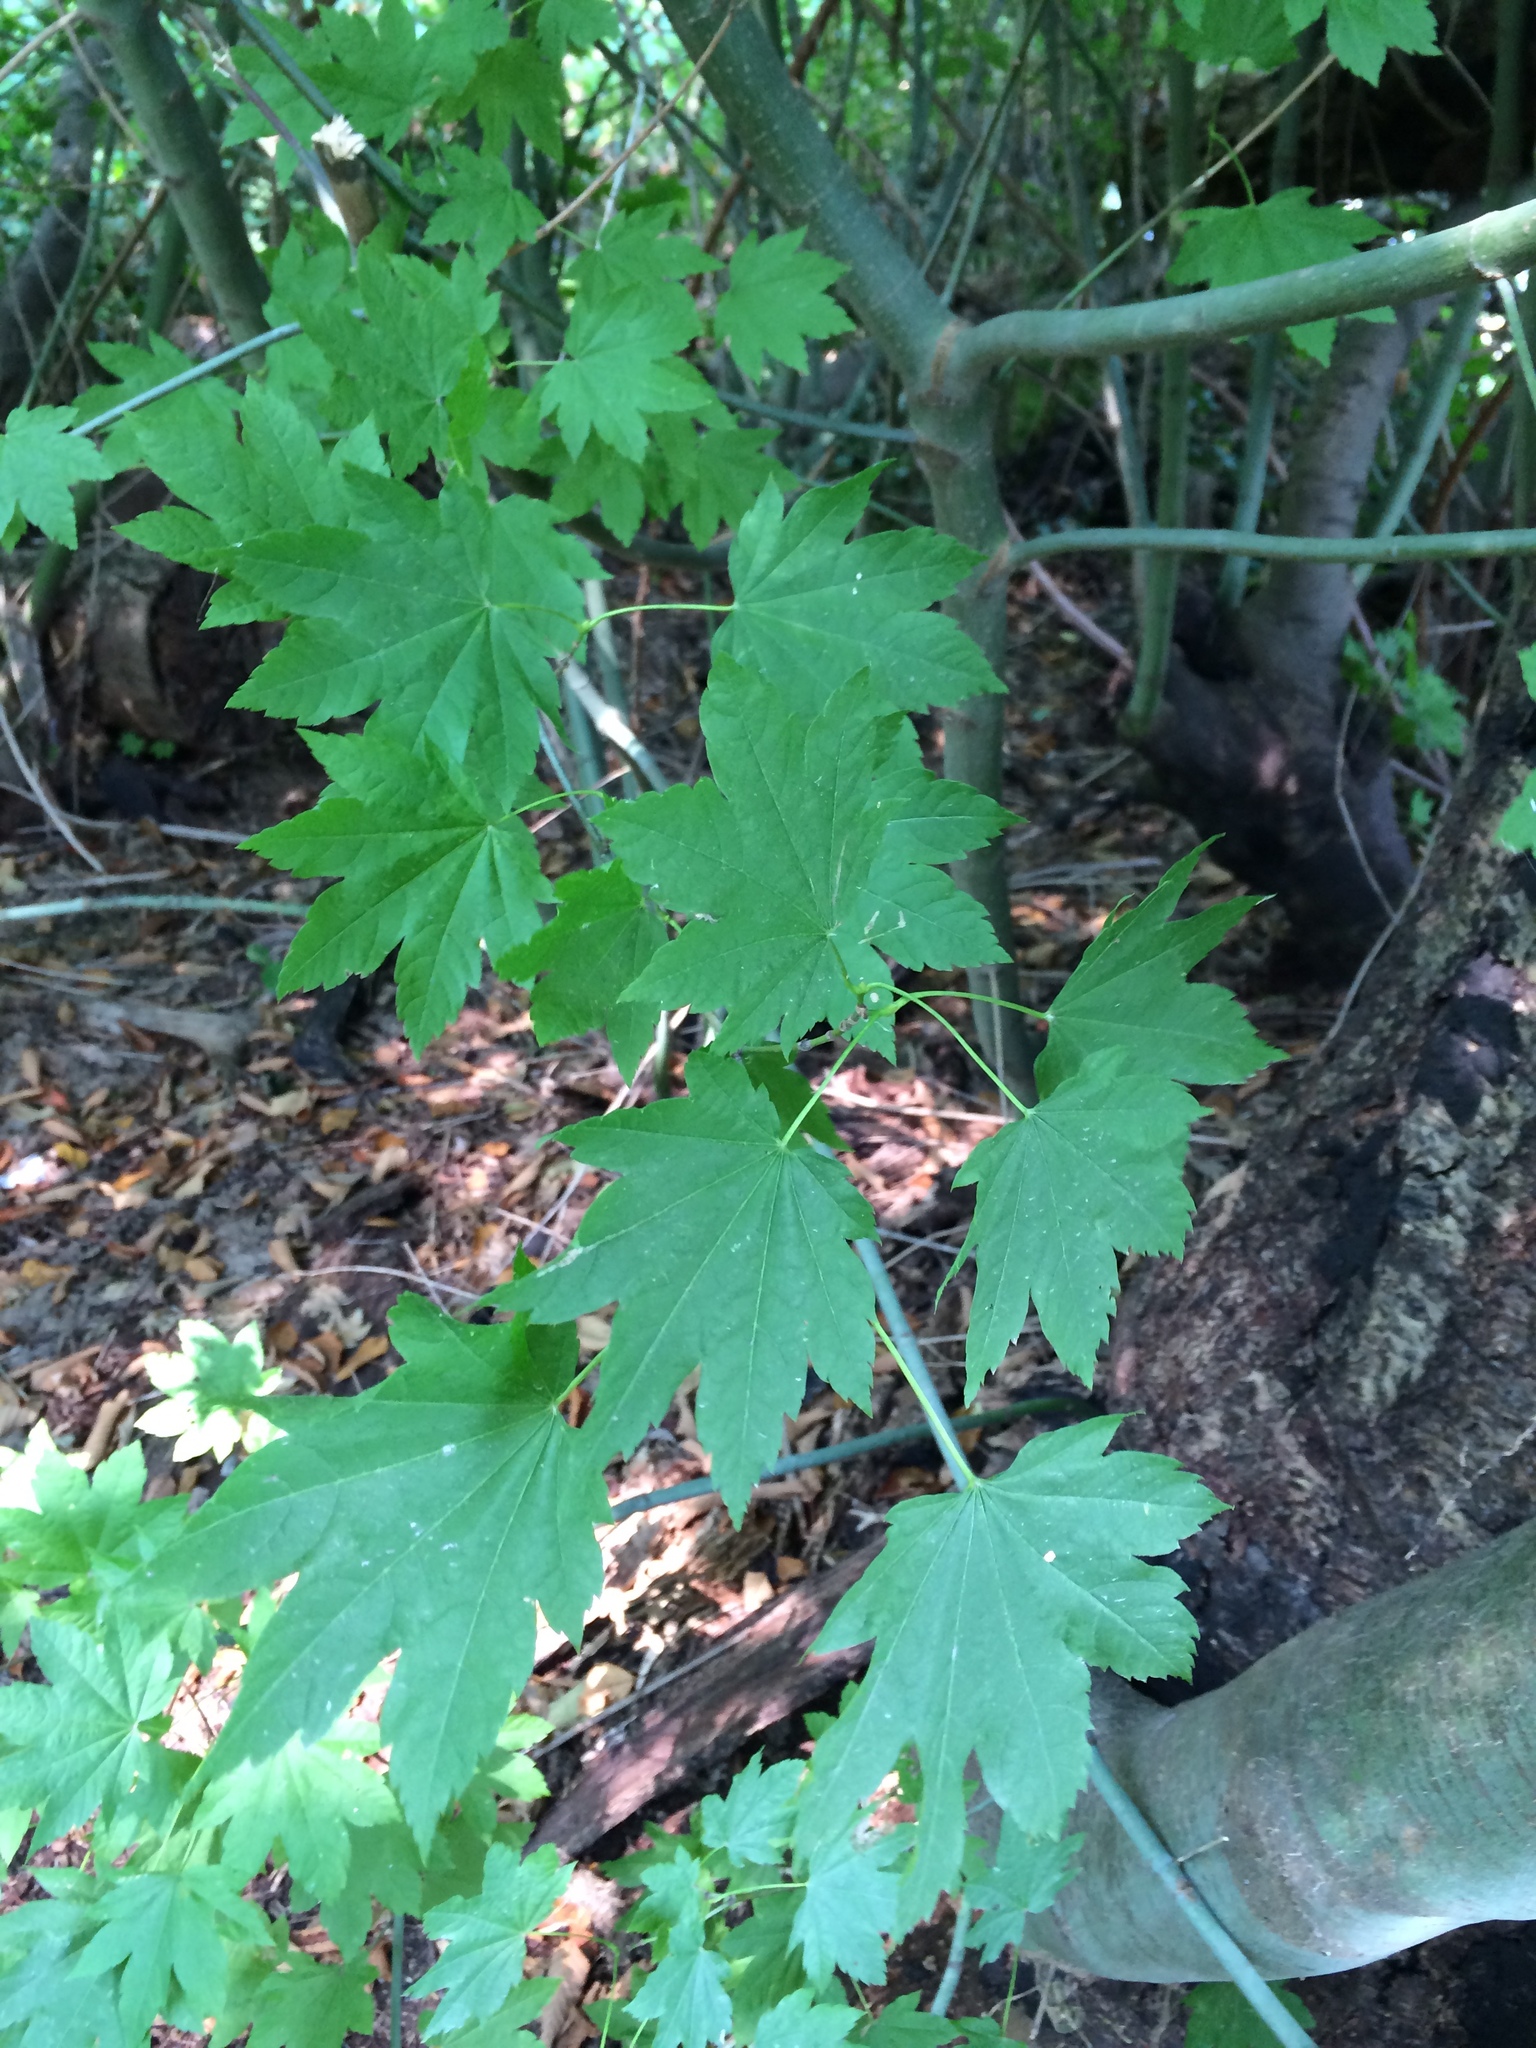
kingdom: Plantae
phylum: Tracheophyta
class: Magnoliopsida
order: Sapindales
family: Sapindaceae
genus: Acer
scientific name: Acer circinatum
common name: Vine maple
